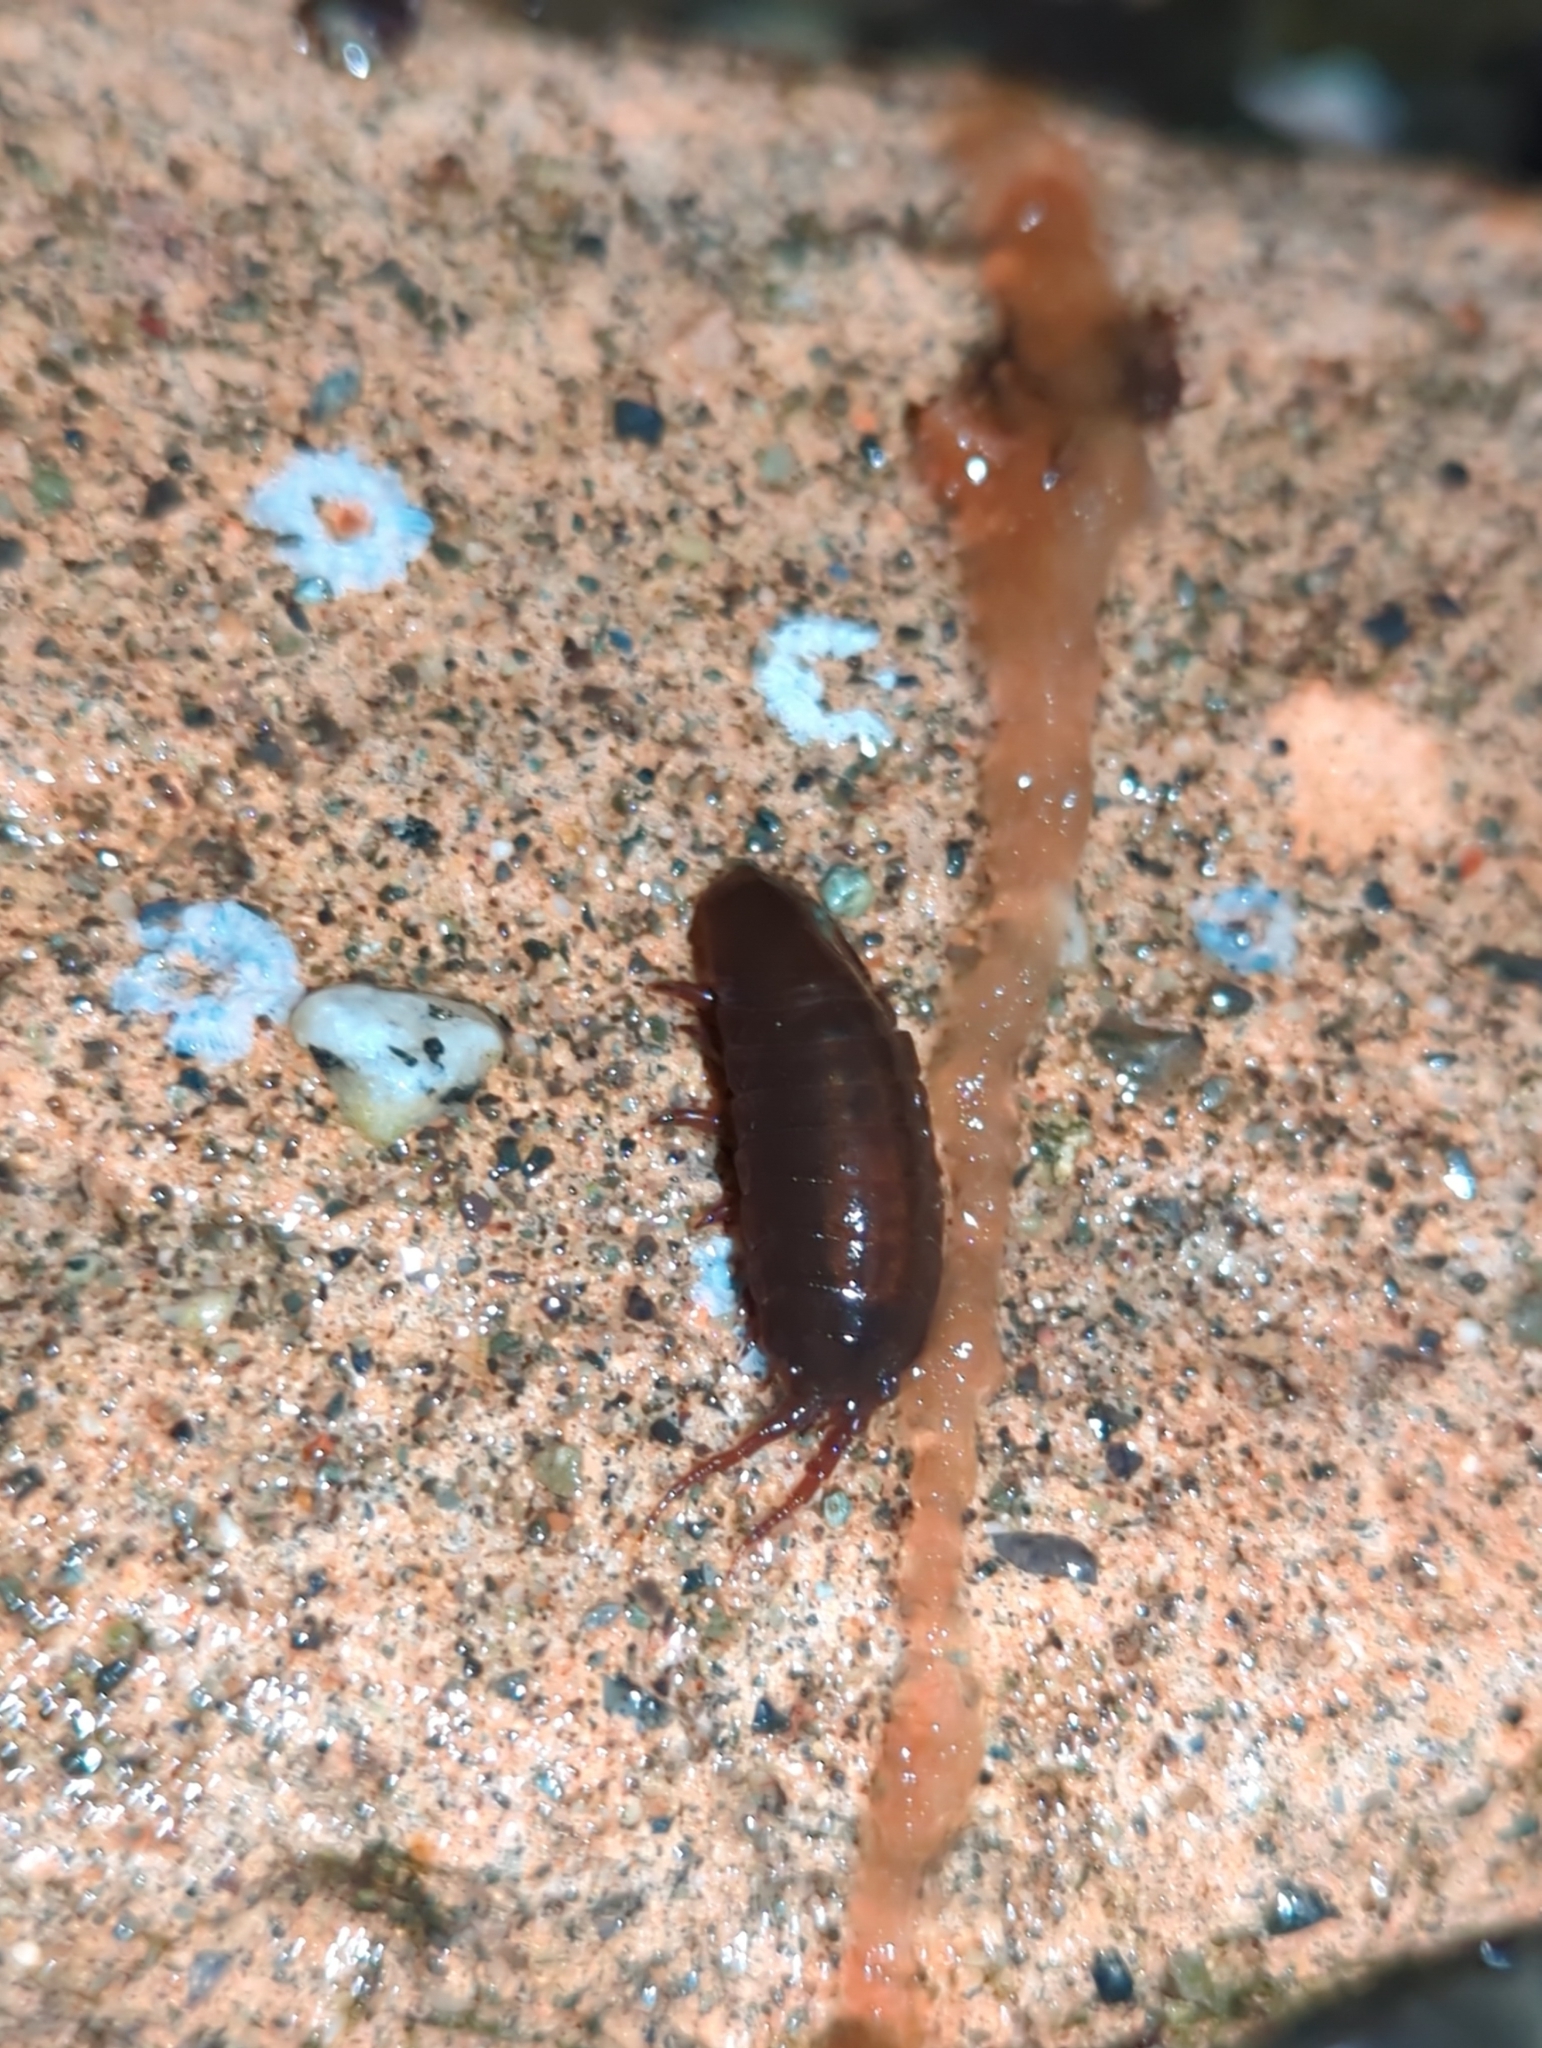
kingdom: Animalia
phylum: Arthropoda
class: Malacostraca
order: Isopoda
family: Idoteidae
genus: Pentidotea
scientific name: Pentidotea wosnesenskii
